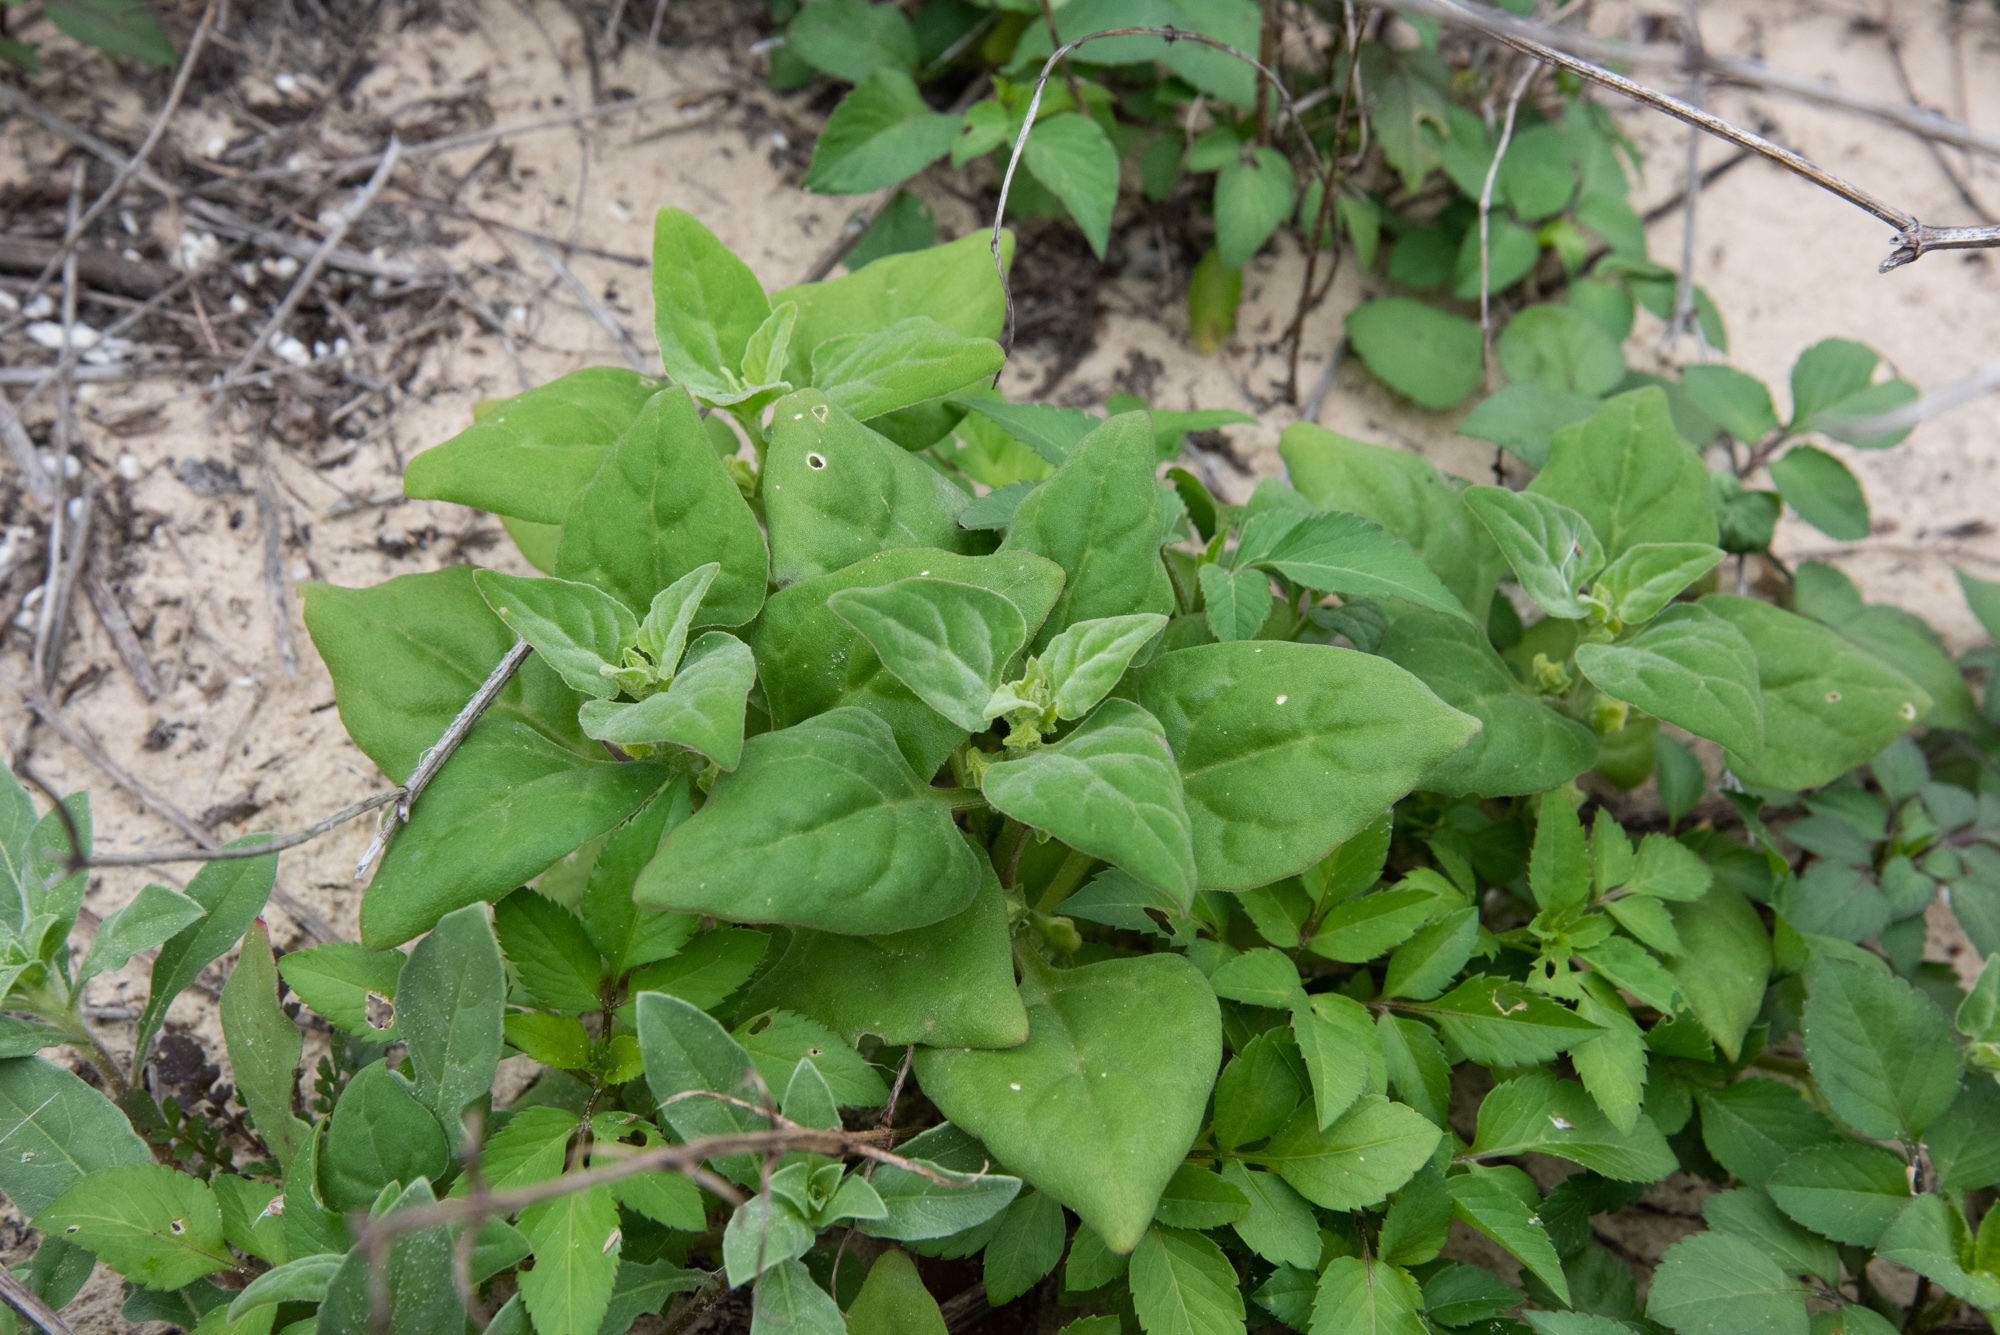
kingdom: Plantae
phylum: Tracheophyta
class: Magnoliopsida
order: Caryophyllales
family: Aizoaceae
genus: Tetragonia
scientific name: Tetragonia tetragonoides
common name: New zealand-spinach
